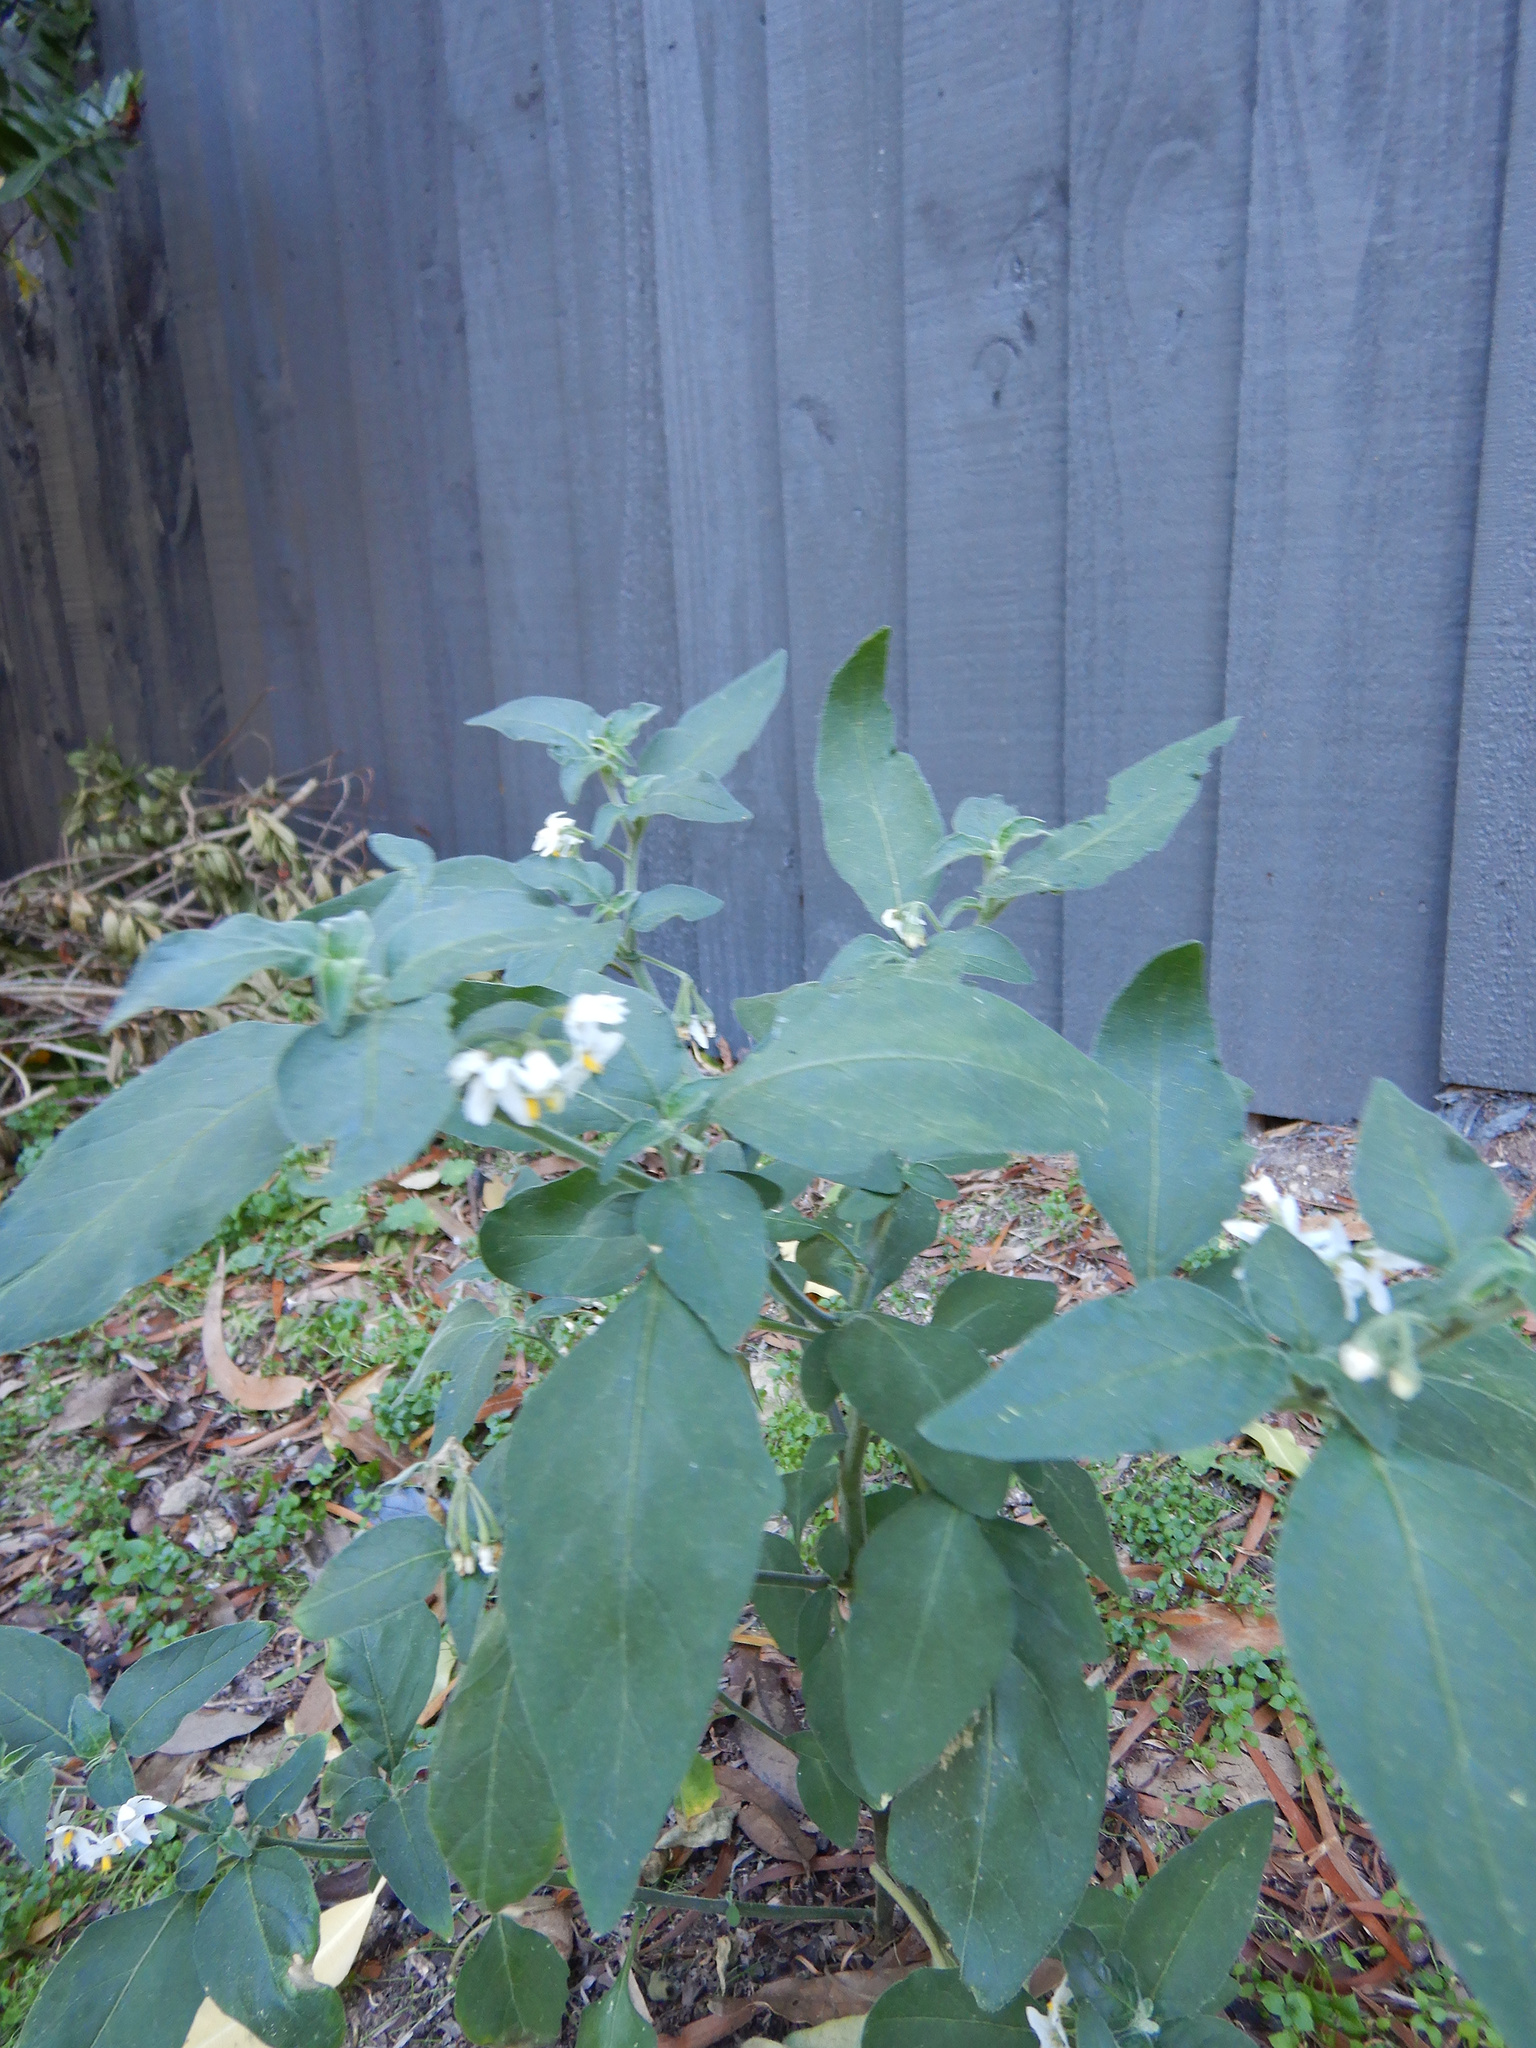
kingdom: Plantae
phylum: Tracheophyta
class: Magnoliopsida
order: Solanales
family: Solanaceae
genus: Solanum
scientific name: Solanum chenopodioides
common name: Tall nightshade
